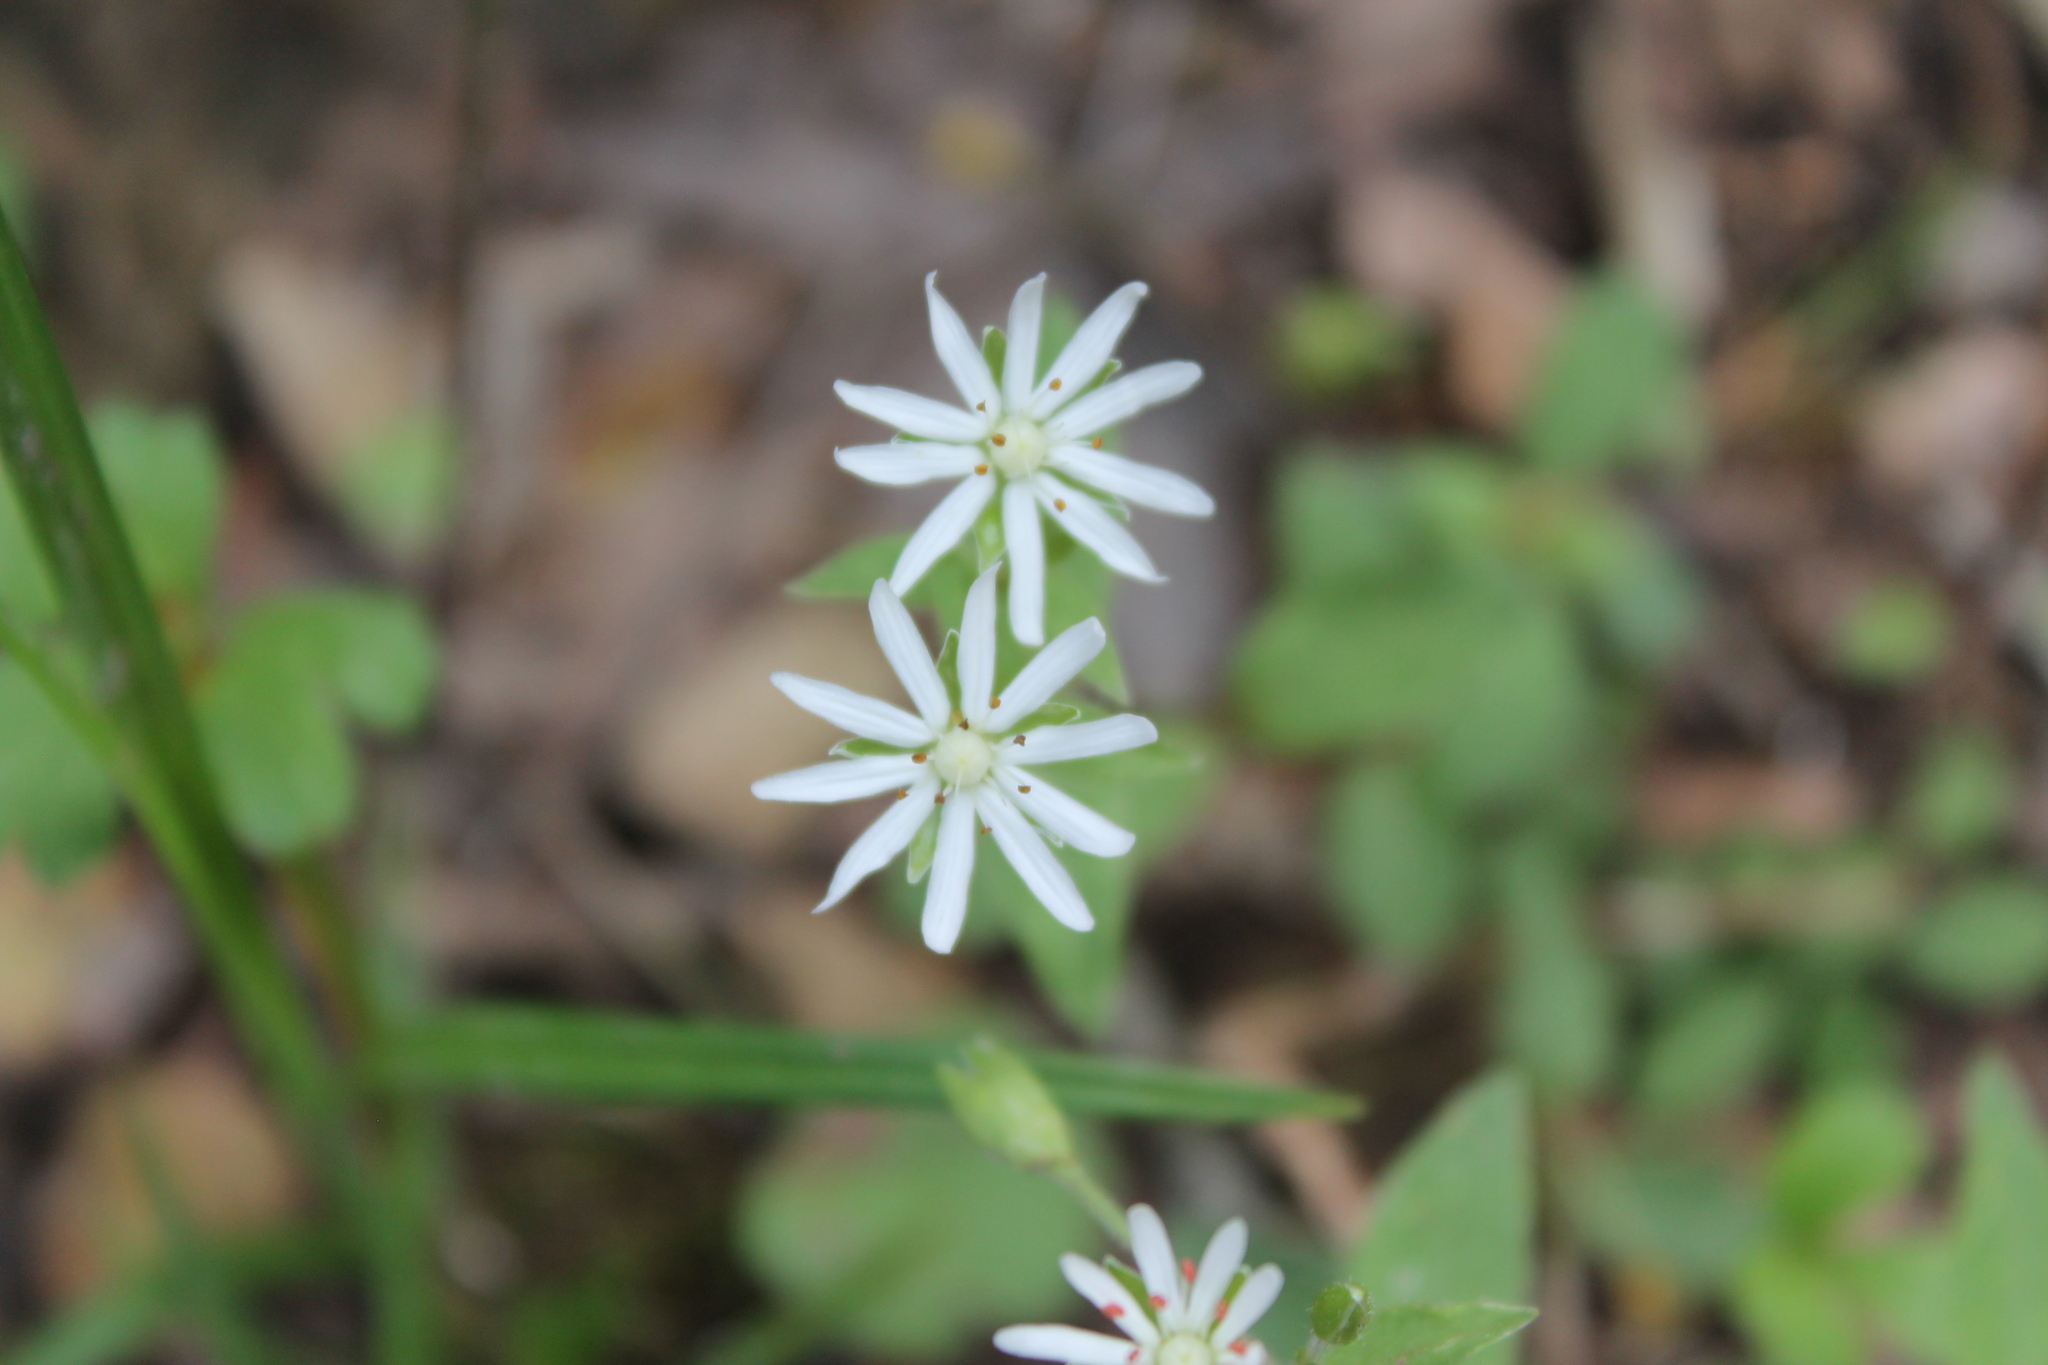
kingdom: Plantae
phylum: Tracheophyta
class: Magnoliopsida
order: Caryophyllales
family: Caryophyllaceae
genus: Stellaria
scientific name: Stellaria pubera
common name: Star chickweed
